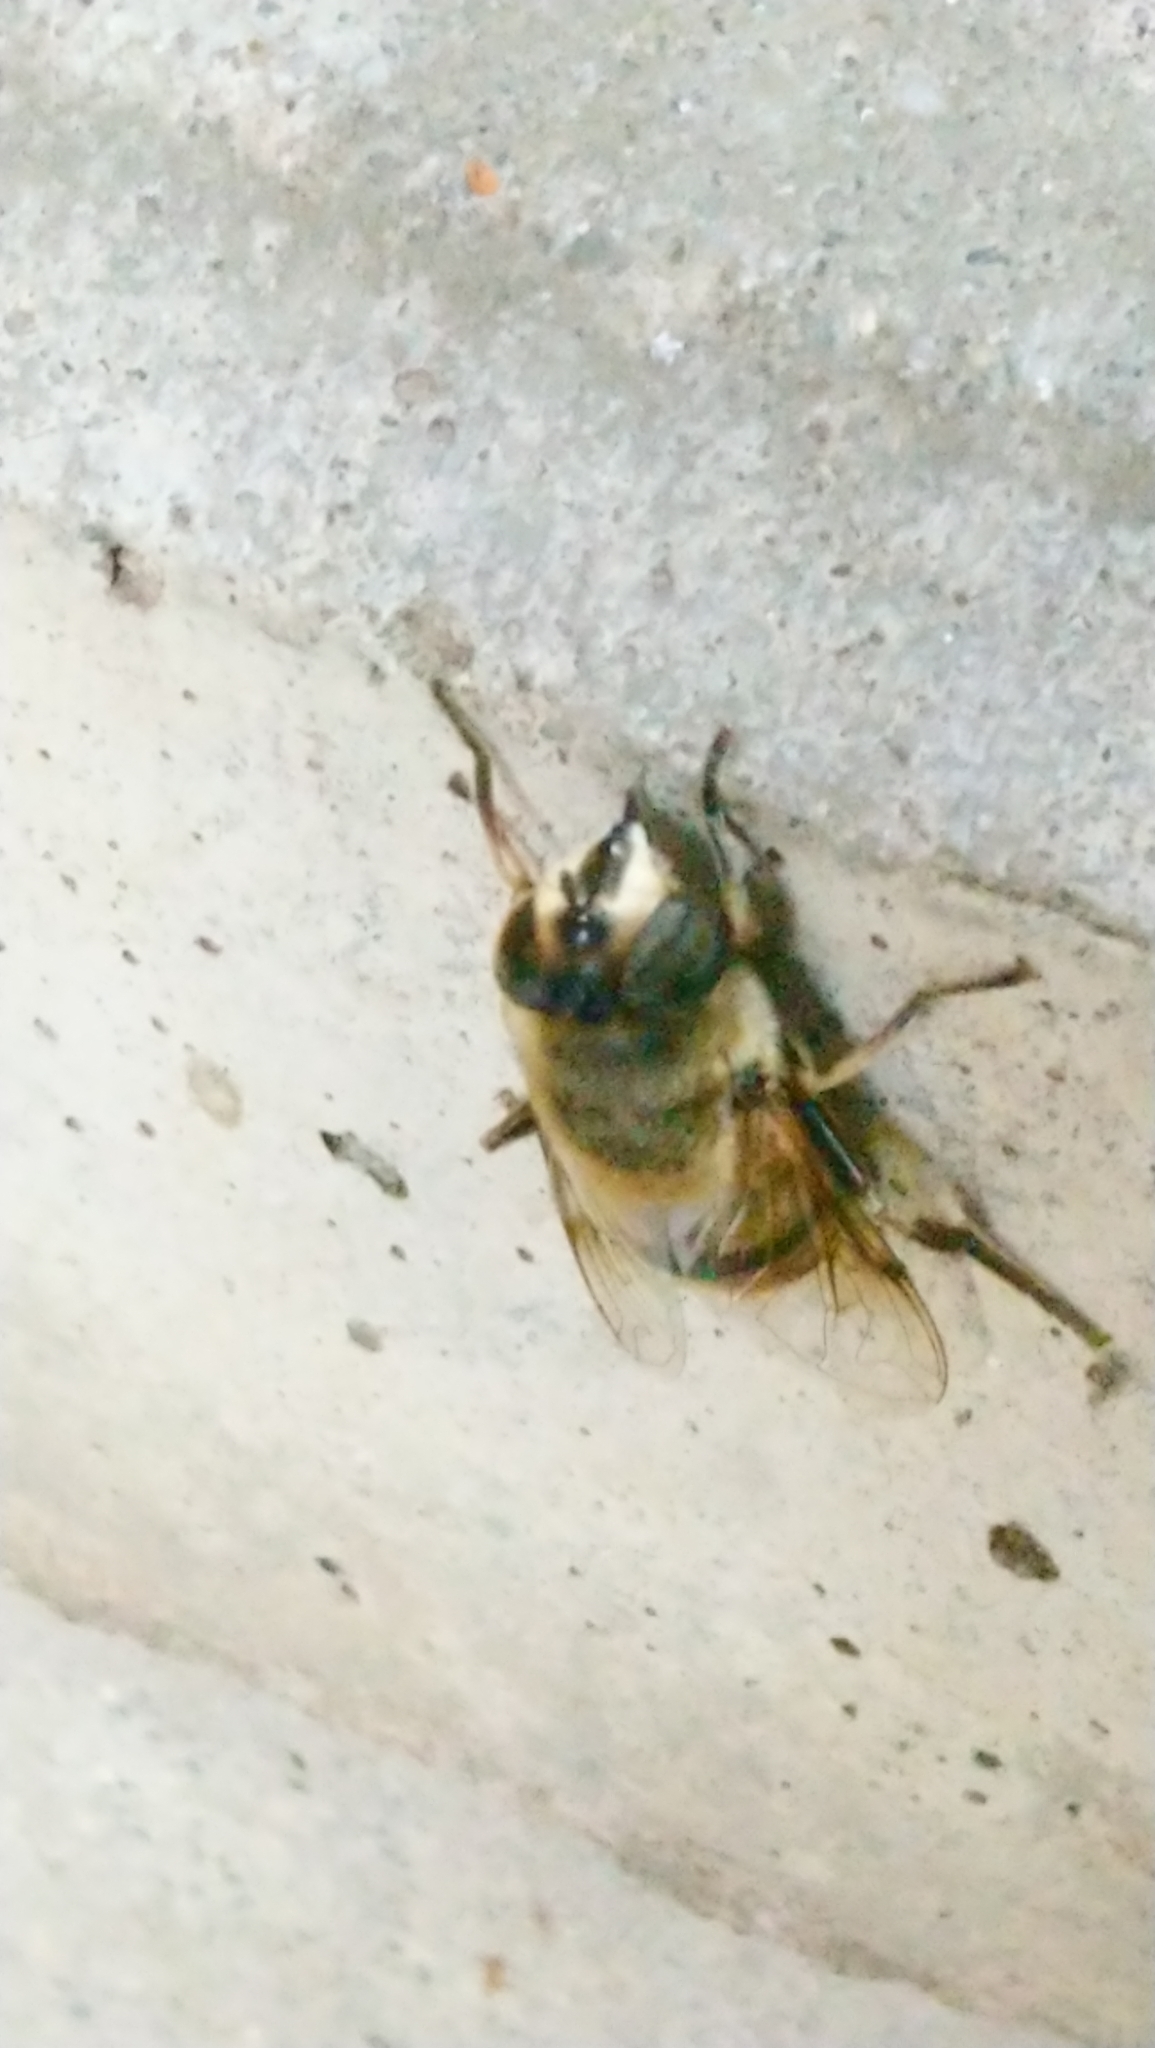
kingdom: Animalia
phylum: Arthropoda
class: Insecta
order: Diptera
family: Syrphidae
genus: Eristalis
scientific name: Eristalis tenax
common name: Drone fly
